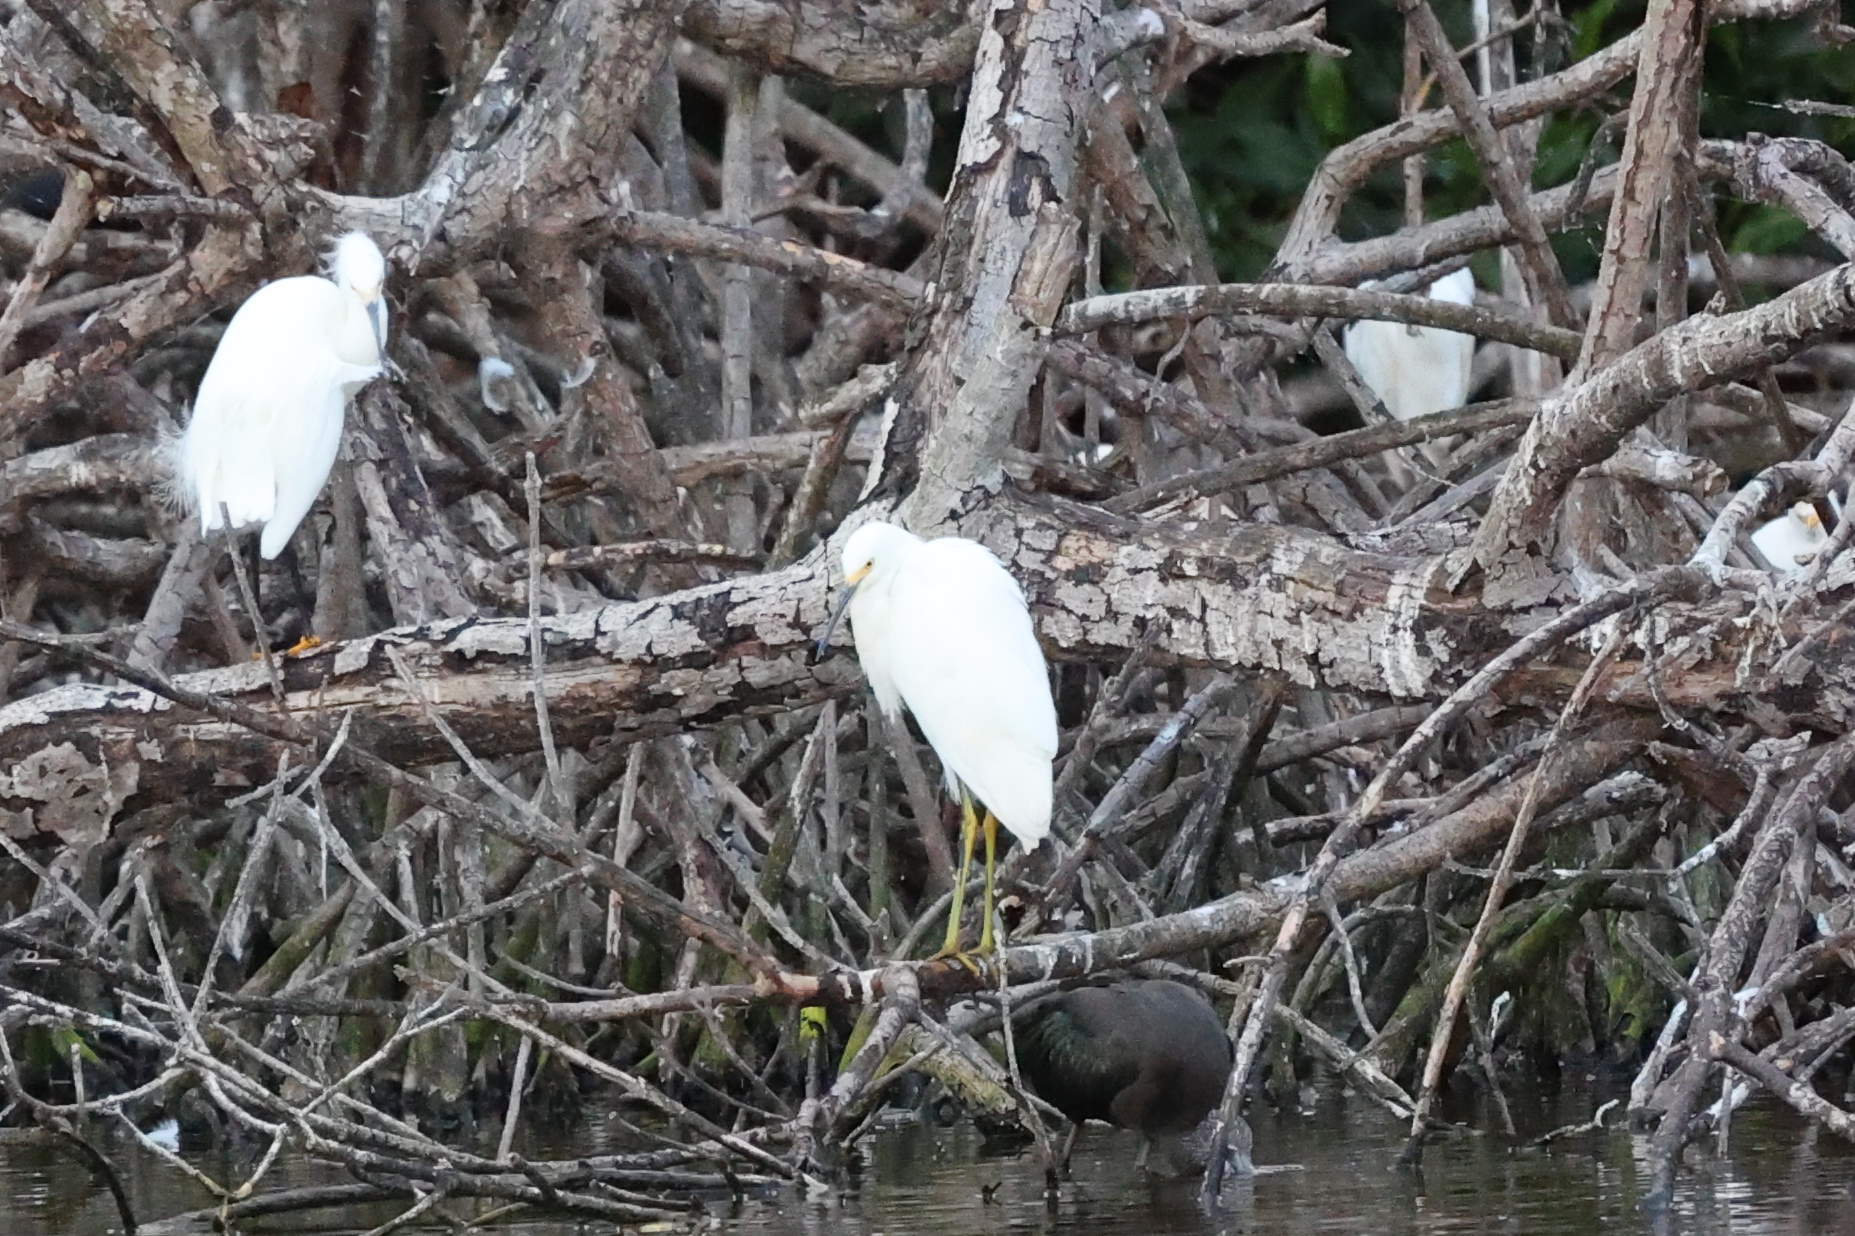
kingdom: Animalia
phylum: Chordata
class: Aves
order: Pelecaniformes
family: Ardeidae
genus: Egretta
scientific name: Egretta thula
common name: Snowy egret
